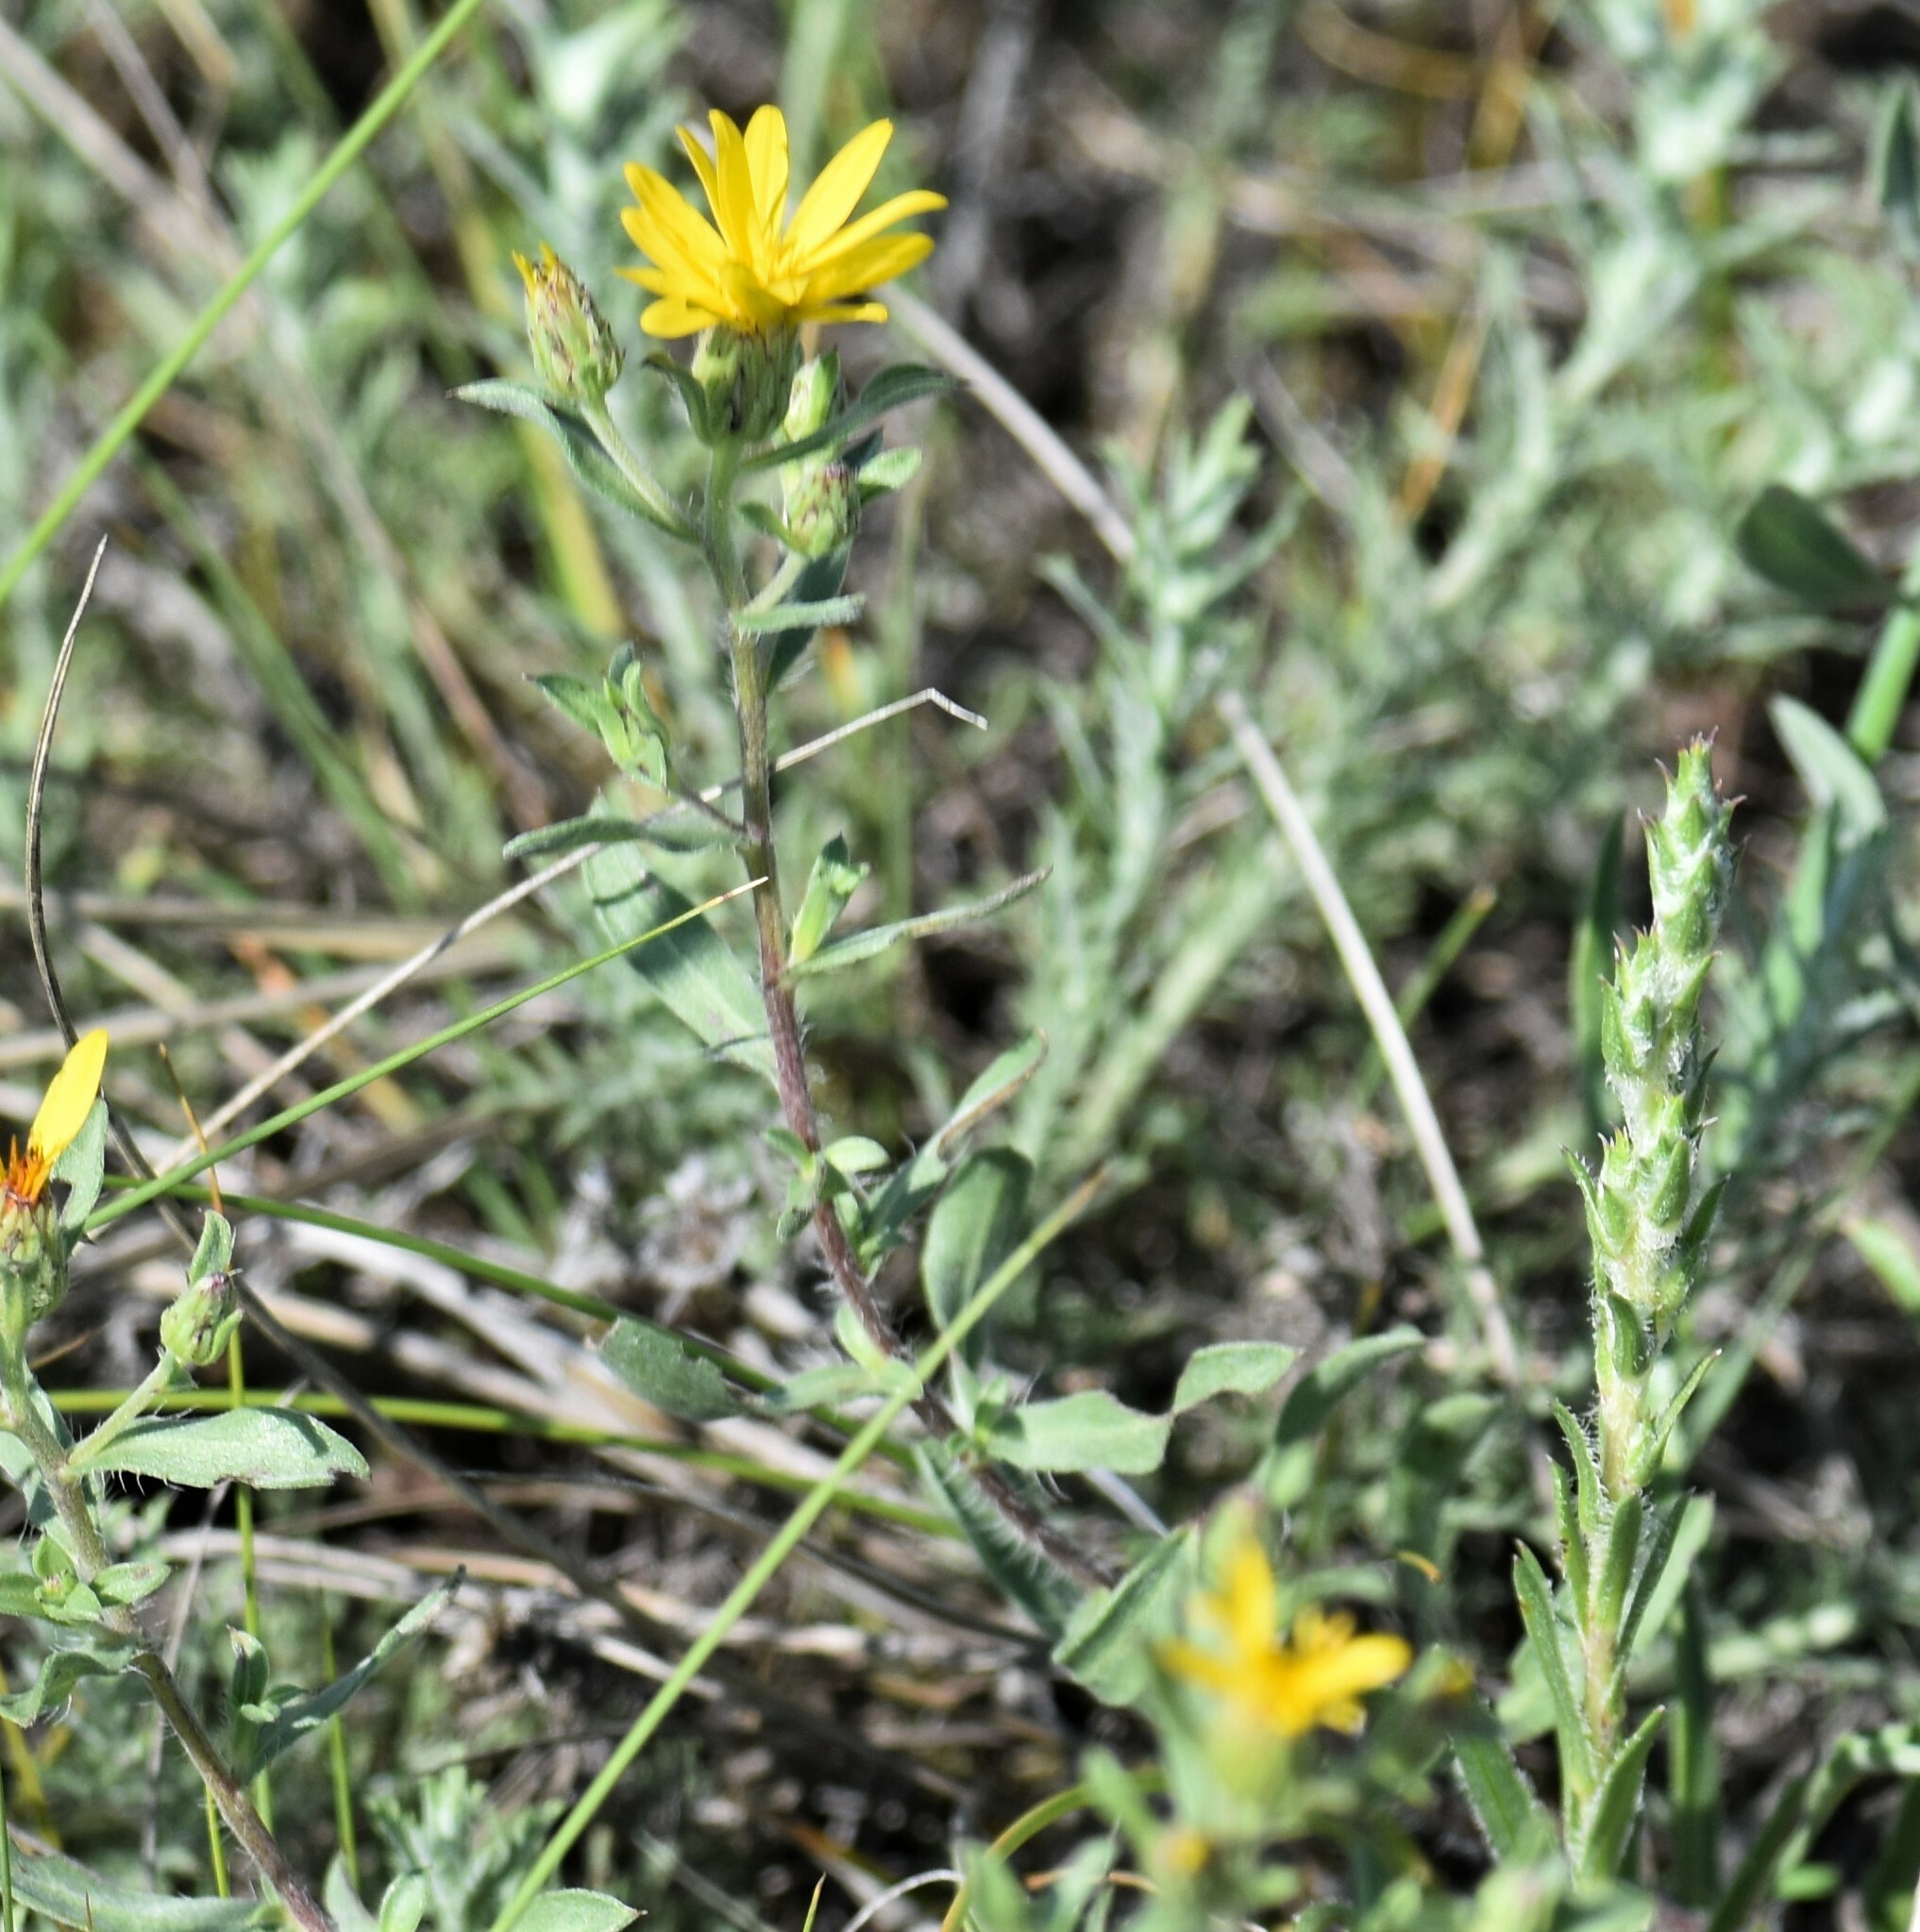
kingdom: Plantae
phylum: Tracheophyta
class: Magnoliopsida
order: Asterales
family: Asteraceae
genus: Heterotheca
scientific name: Heterotheca villosa
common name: Hairy false goldenaster
